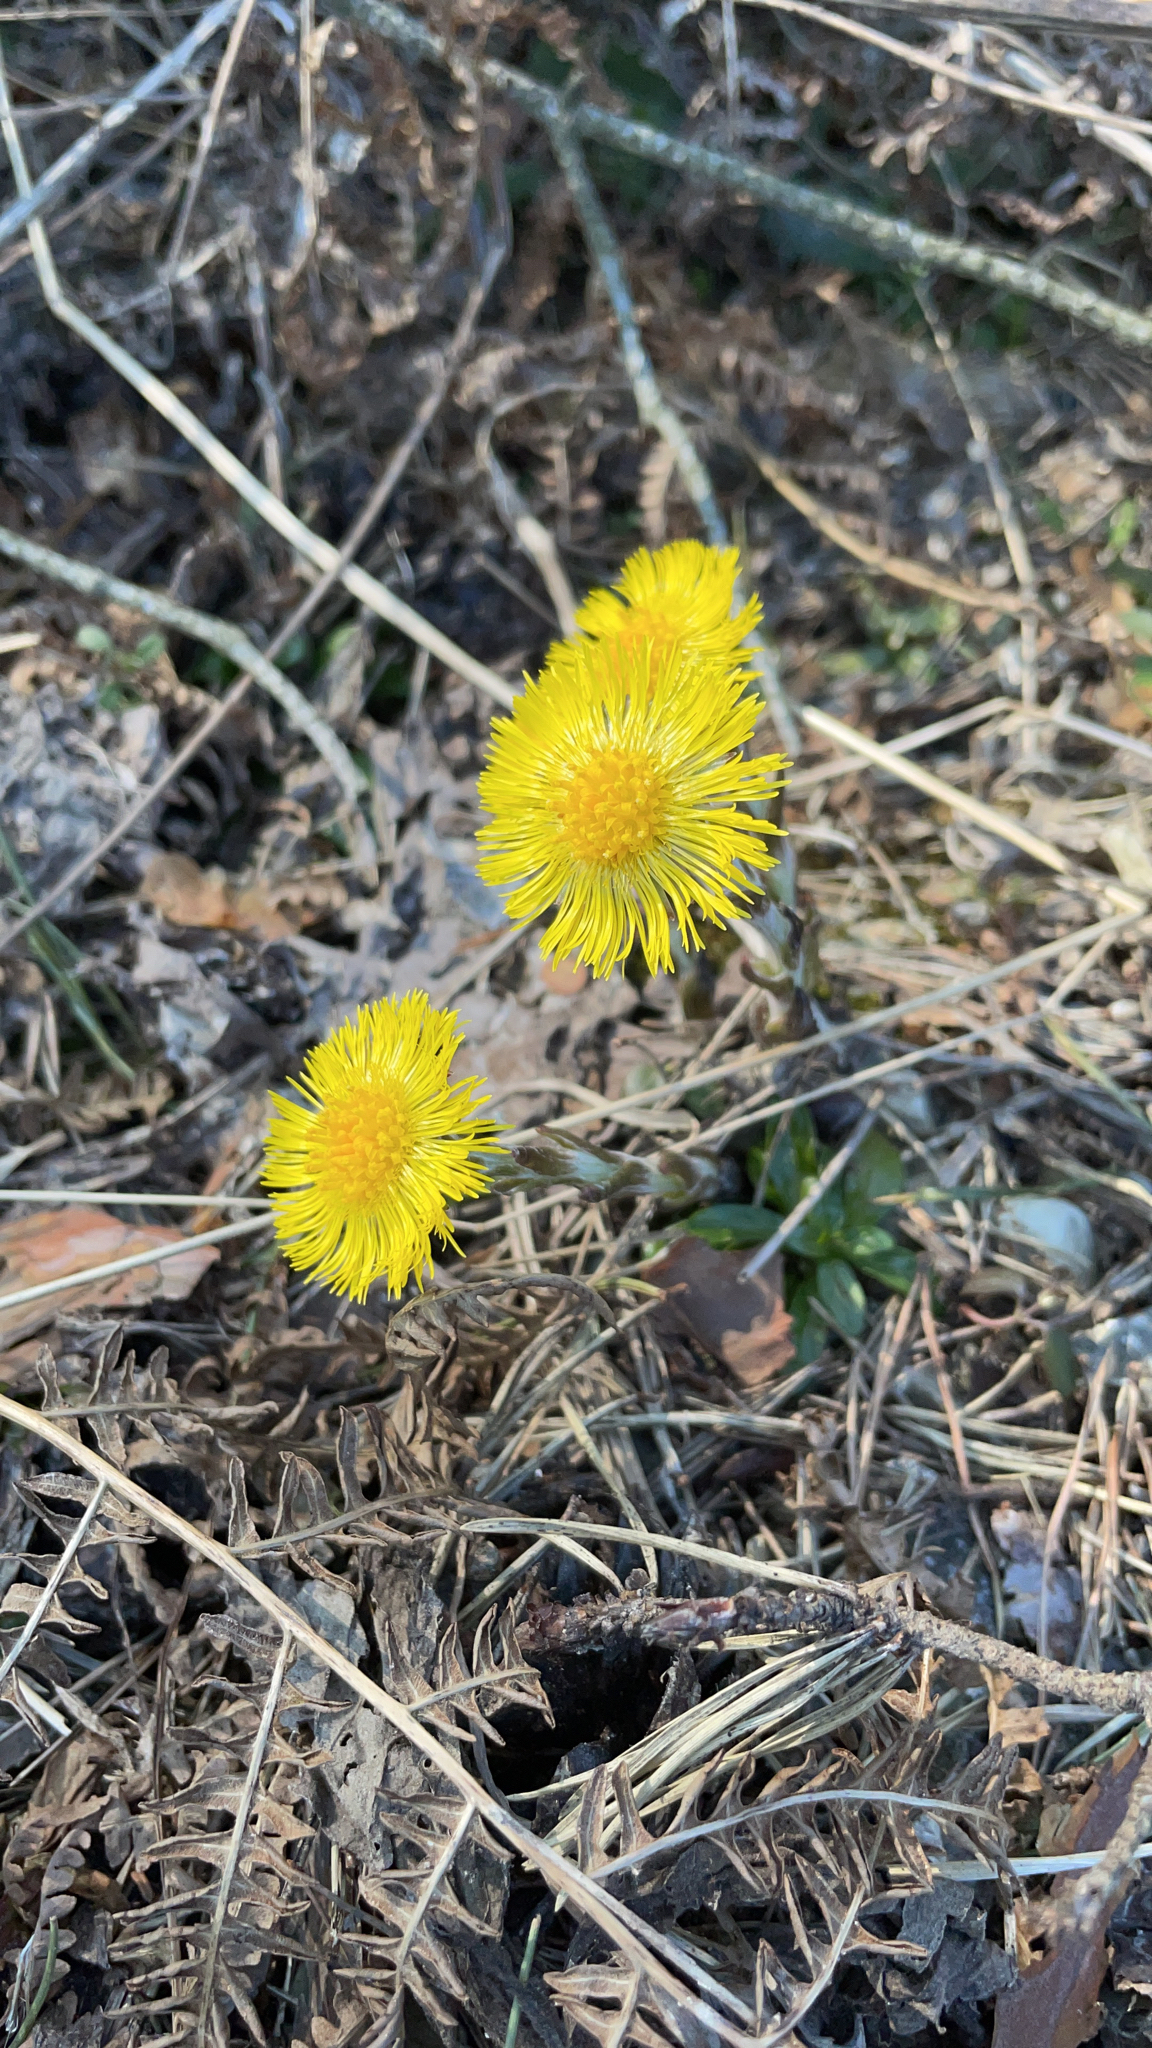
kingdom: Plantae
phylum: Tracheophyta
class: Magnoliopsida
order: Asterales
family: Asteraceae
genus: Tussilago
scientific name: Tussilago farfara
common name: Coltsfoot
